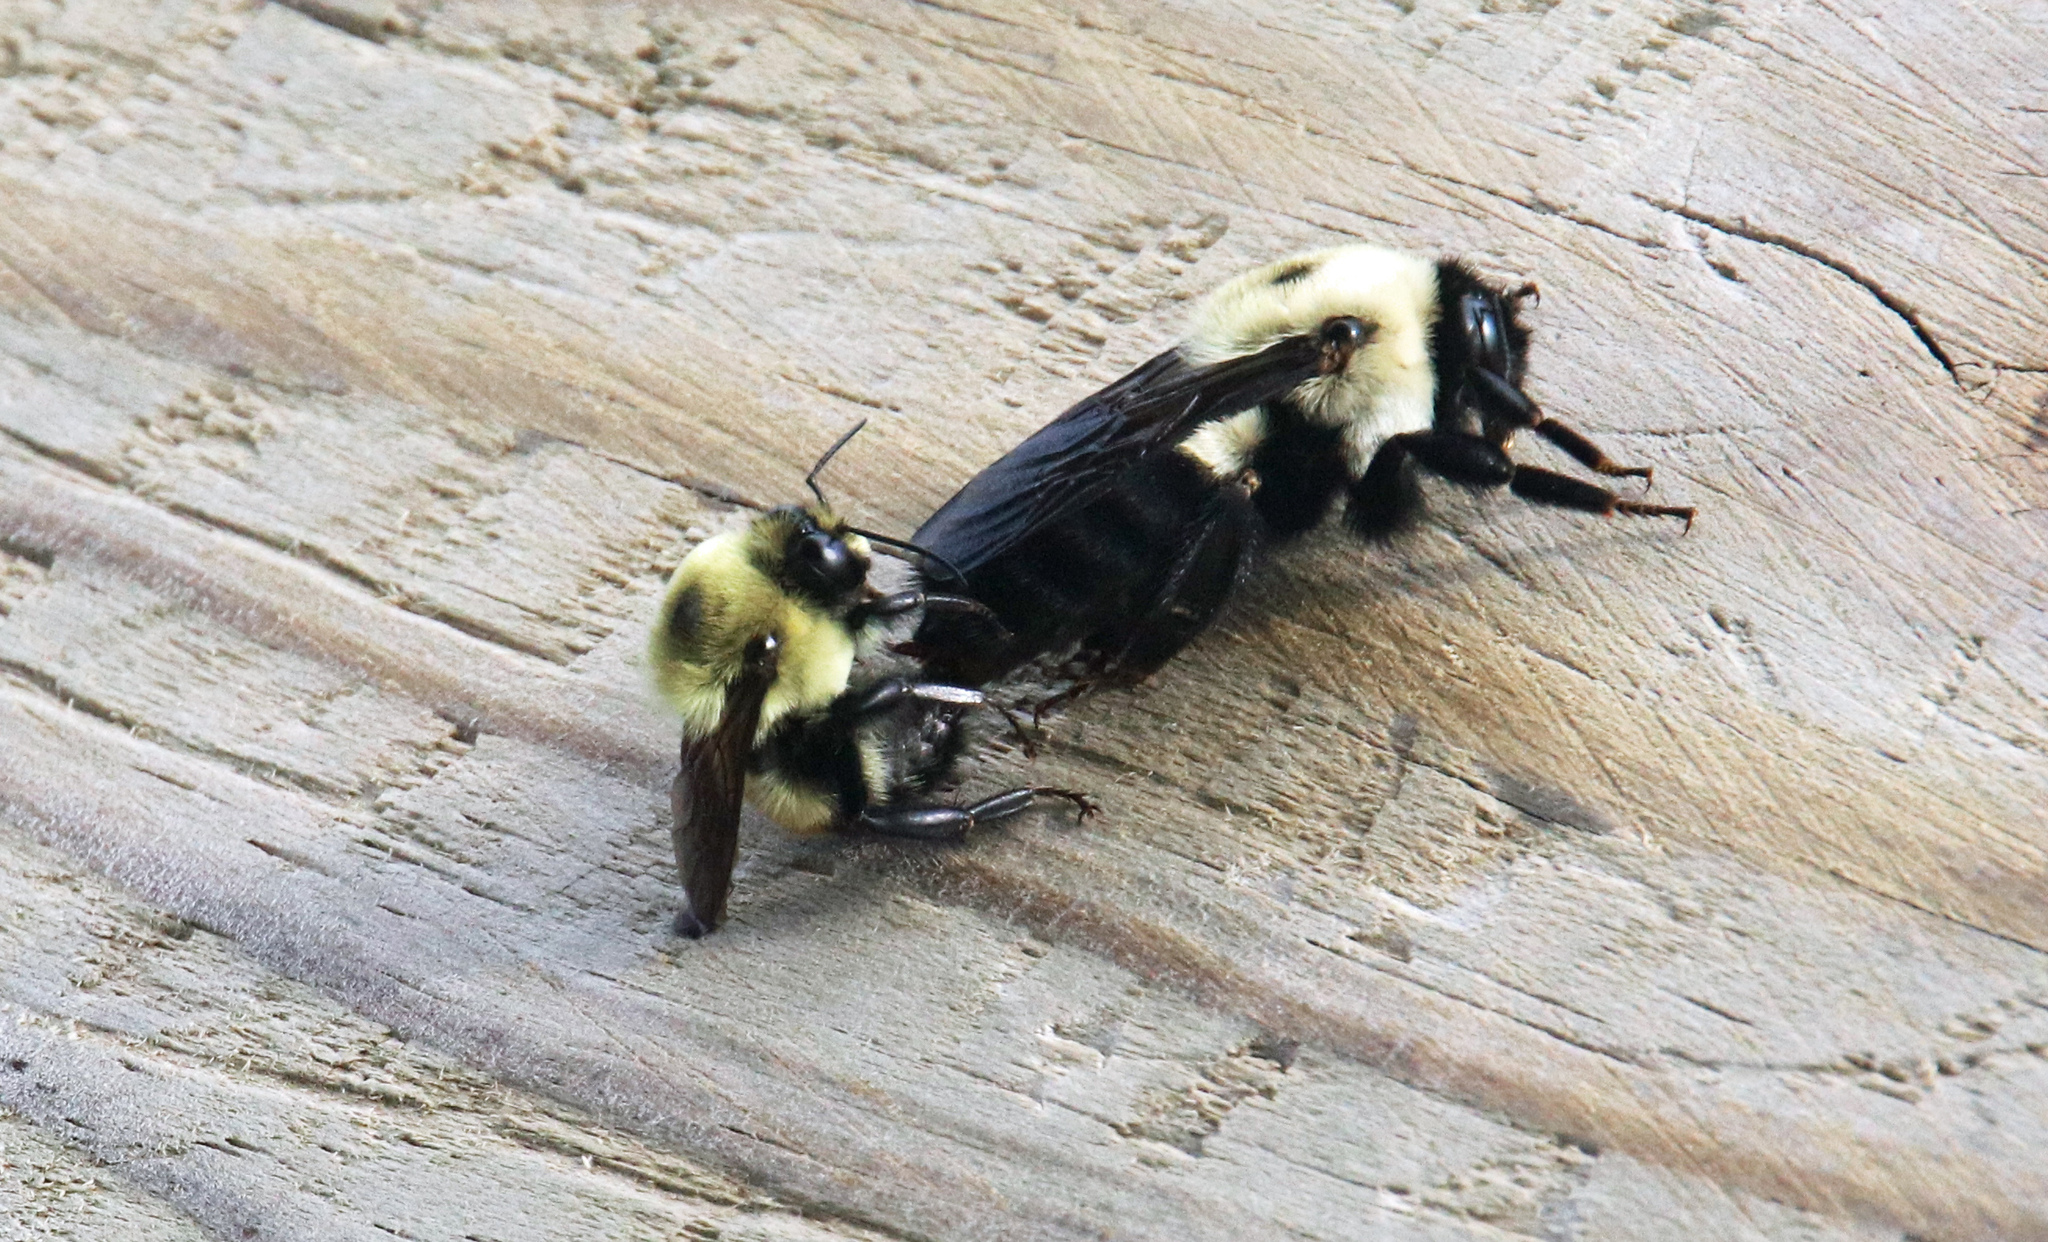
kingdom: Animalia
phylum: Arthropoda
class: Insecta
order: Hymenoptera
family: Apidae
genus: Bombus
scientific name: Bombus griseocollis
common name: Brown-belted bumble bee
